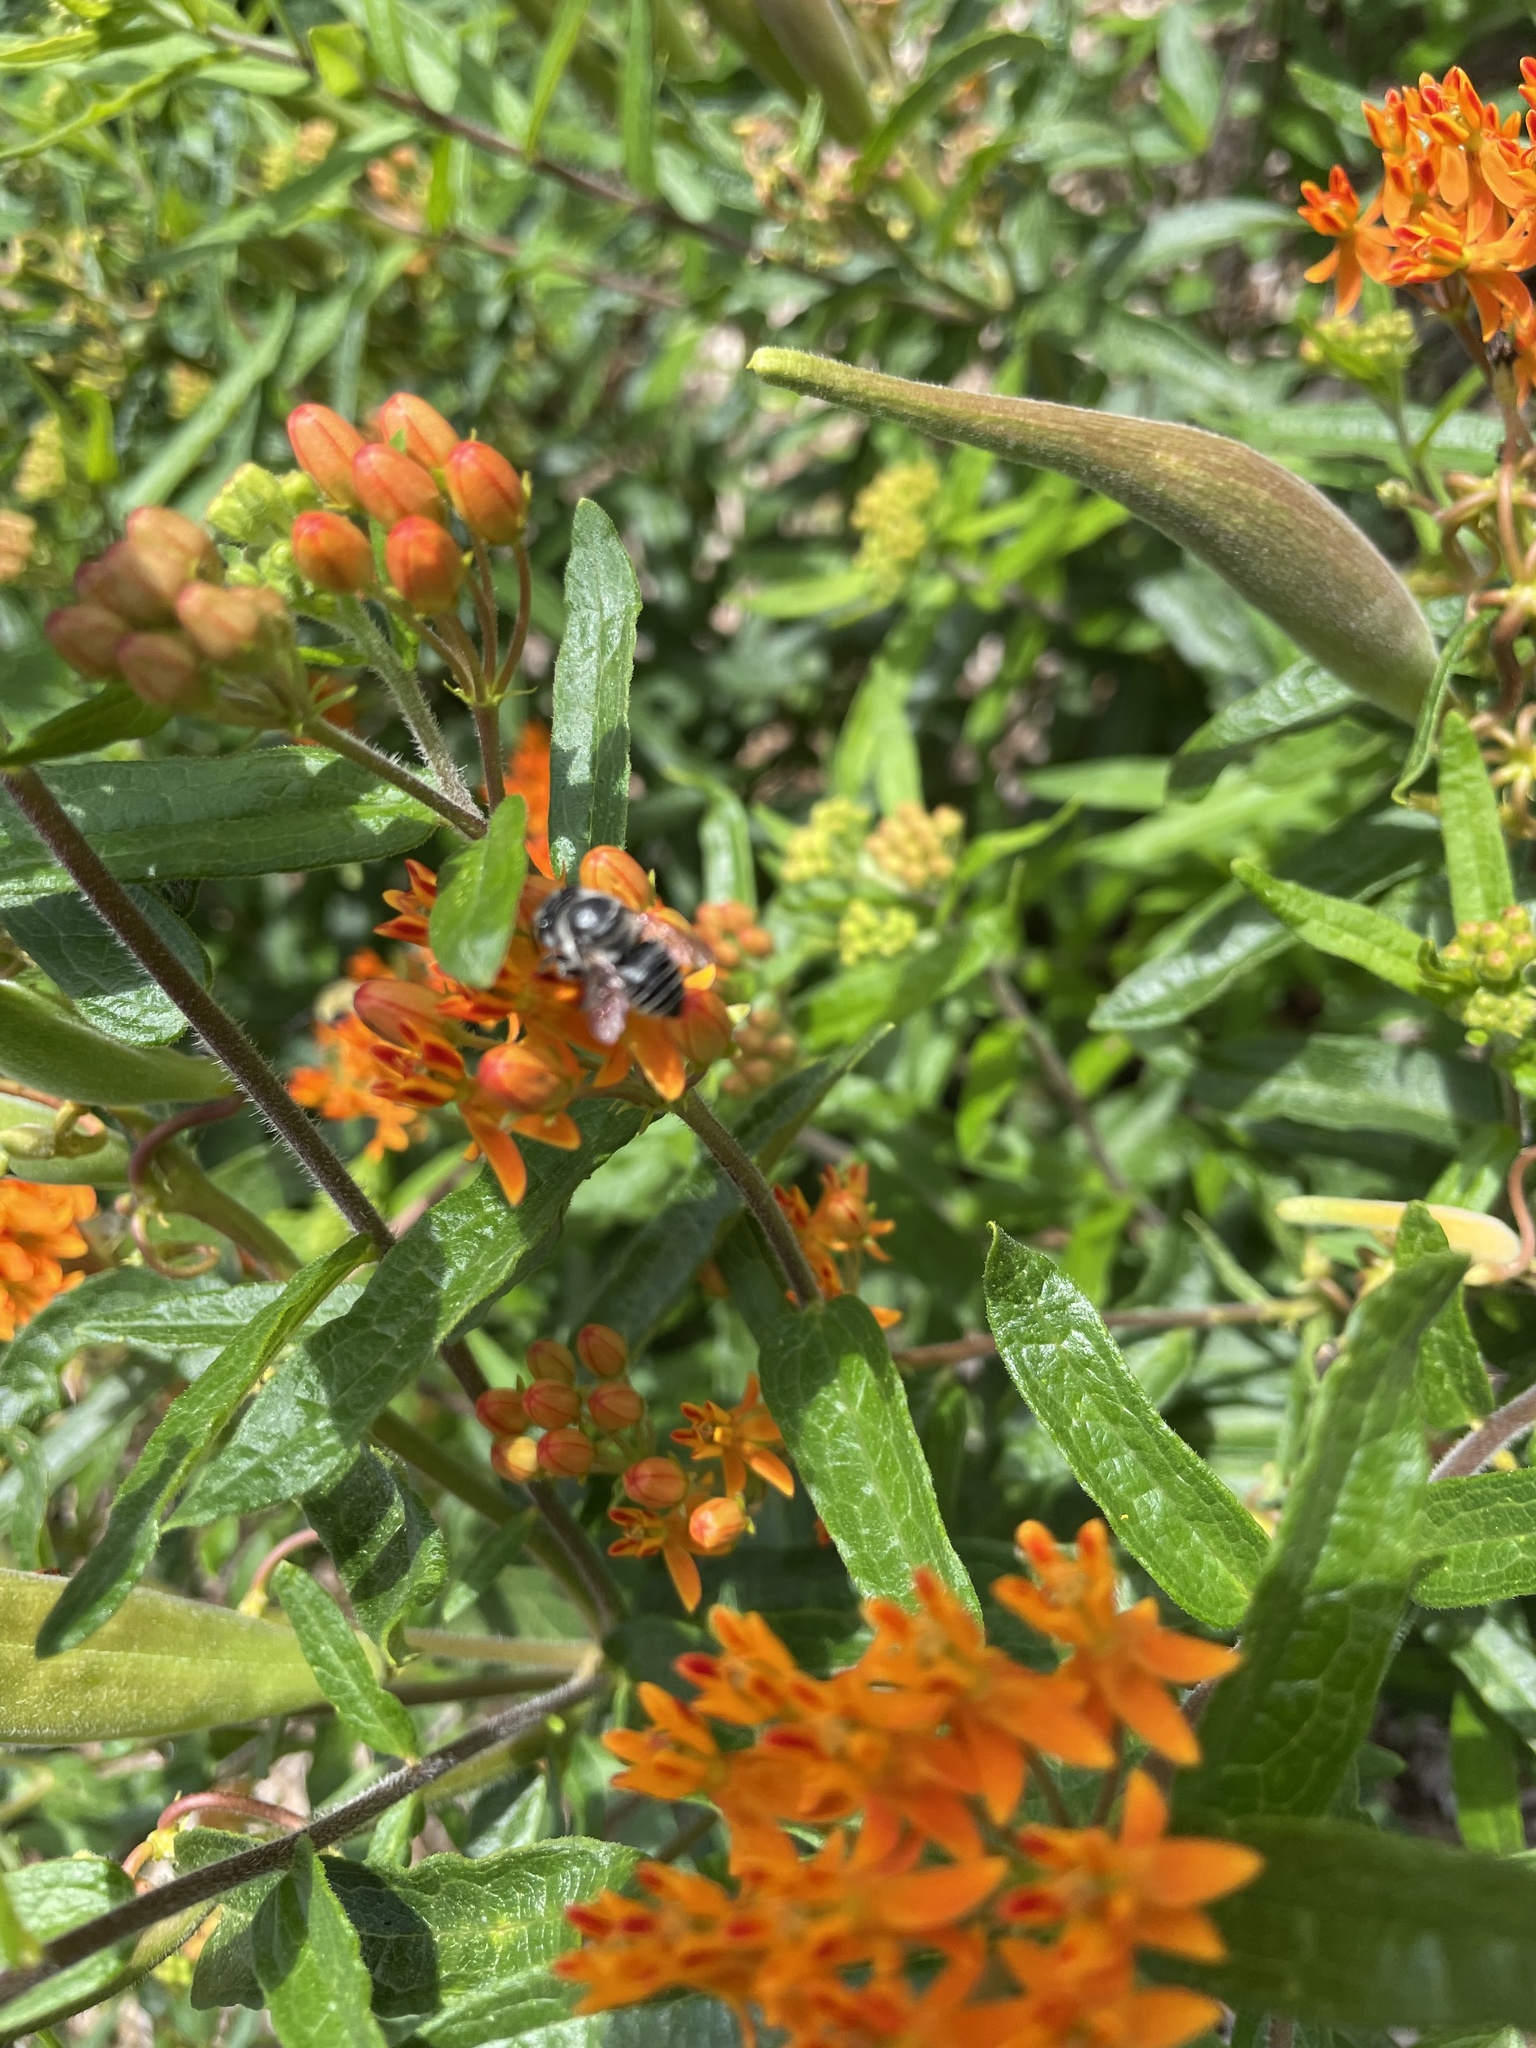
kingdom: Animalia
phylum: Arthropoda
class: Insecta
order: Hymenoptera
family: Megachilidae
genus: Megachile
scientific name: Megachile petulans
